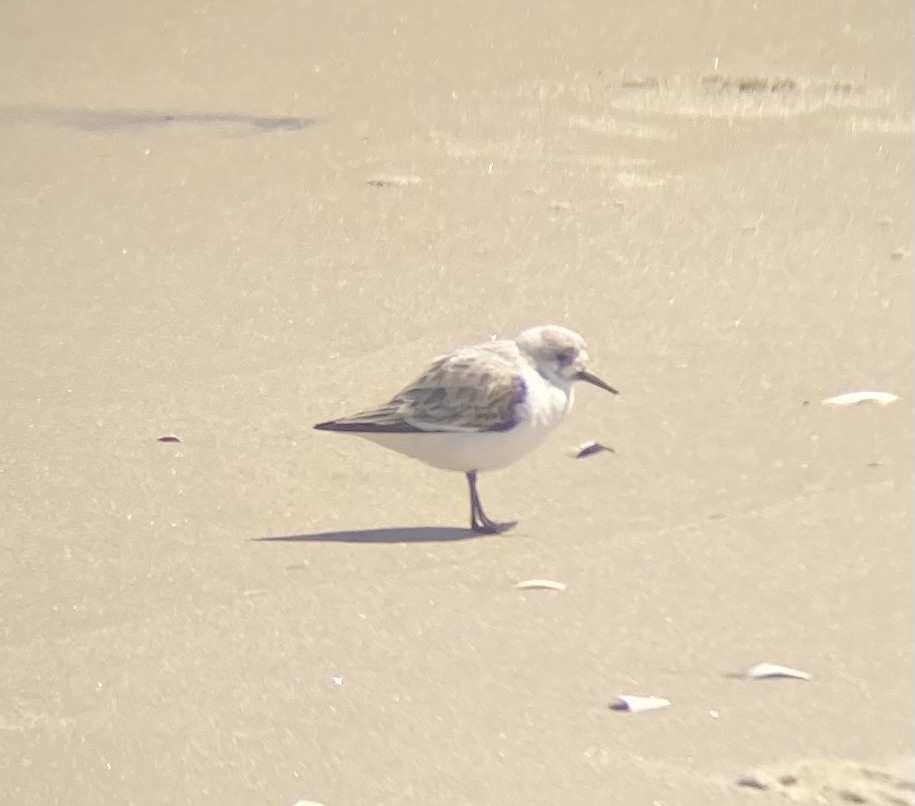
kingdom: Animalia
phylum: Chordata
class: Aves
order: Charadriiformes
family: Scolopacidae
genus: Calidris
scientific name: Calidris alba
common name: Sanderling
